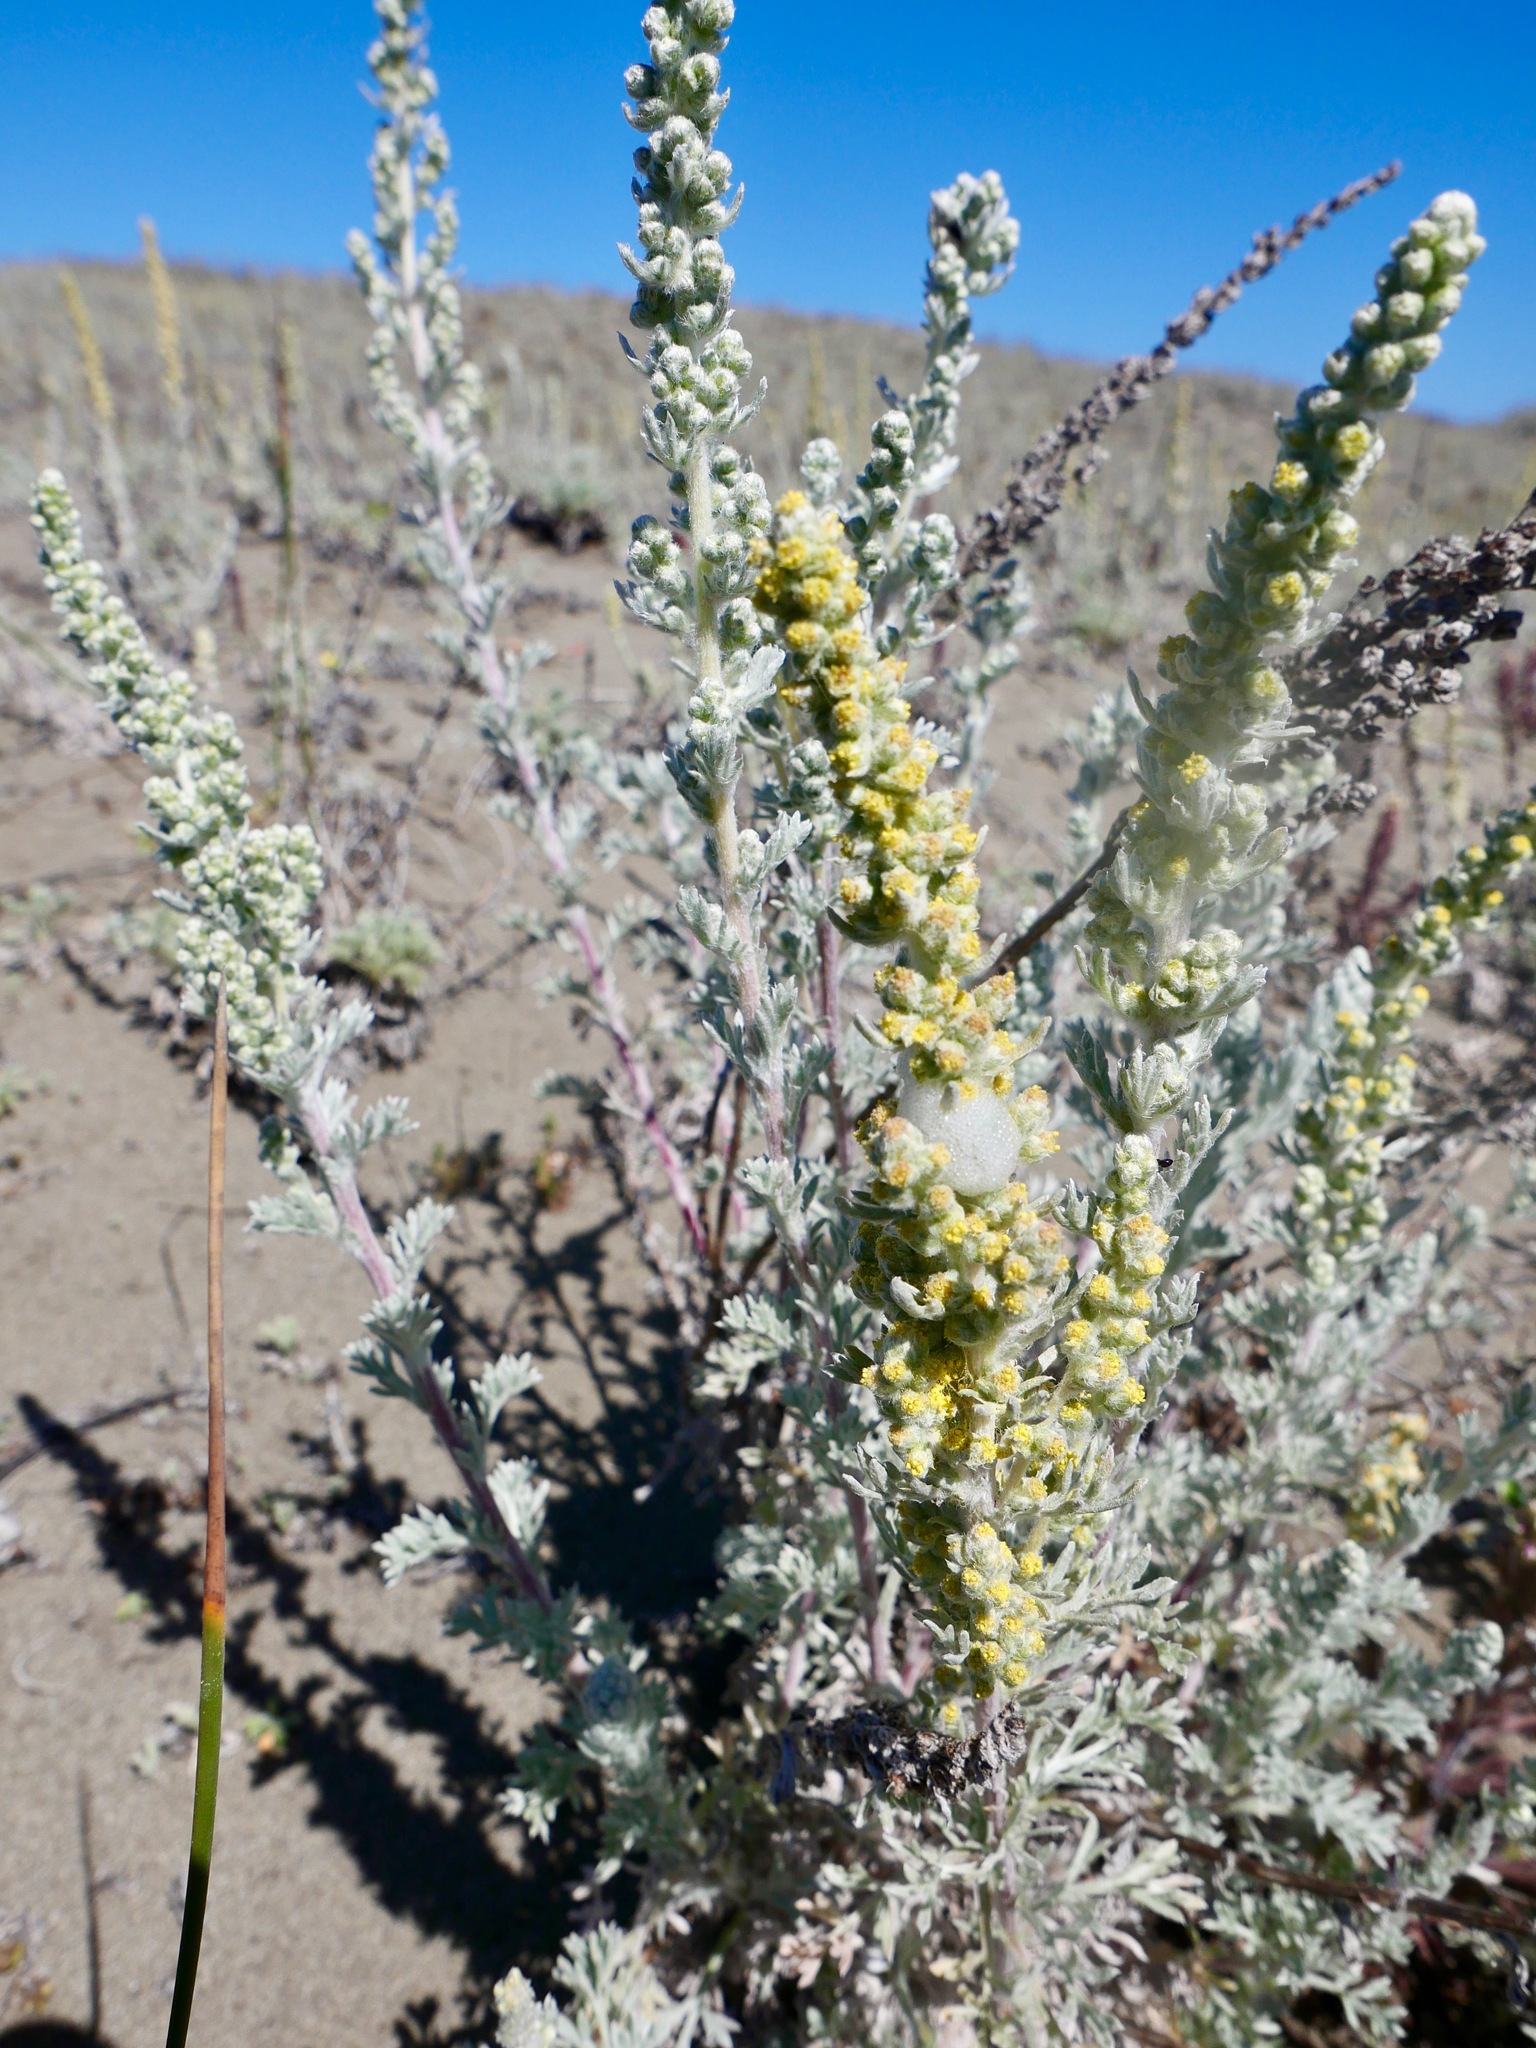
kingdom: Plantae
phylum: Tracheophyta
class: Magnoliopsida
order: Asterales
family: Asteraceae
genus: Artemisia
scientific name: Artemisia pycnocephala
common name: Coastal sagewort
